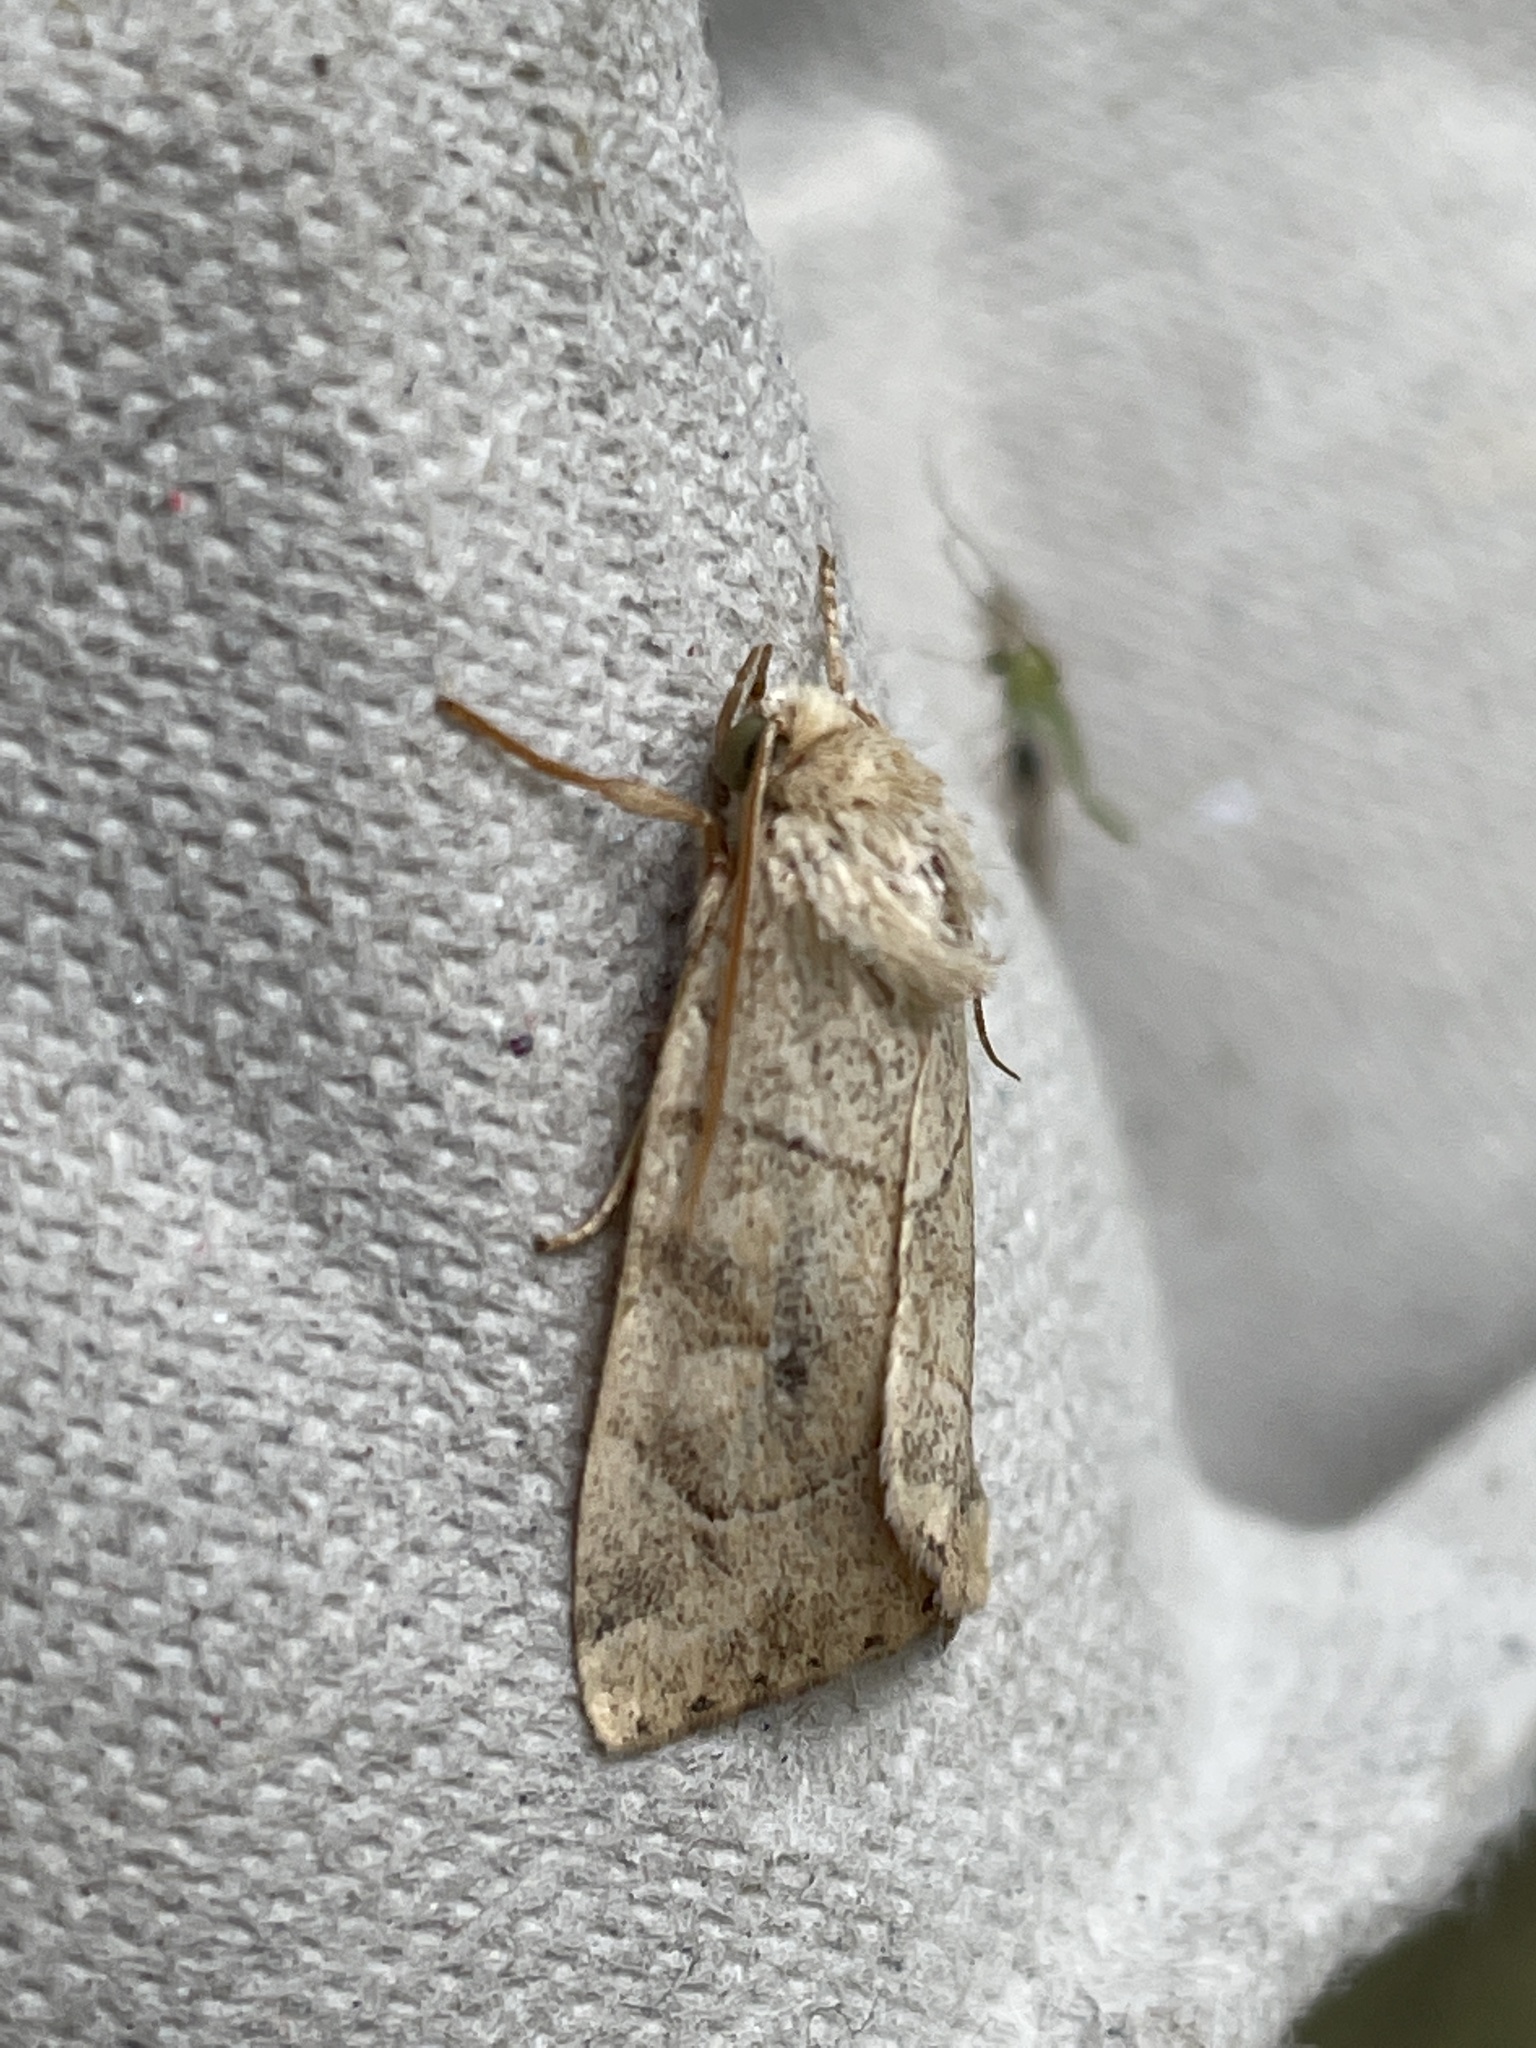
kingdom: Animalia
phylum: Arthropoda
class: Insecta
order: Lepidoptera
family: Noctuidae
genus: Cosmia
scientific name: Cosmia trapezina
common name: Dun-bar
